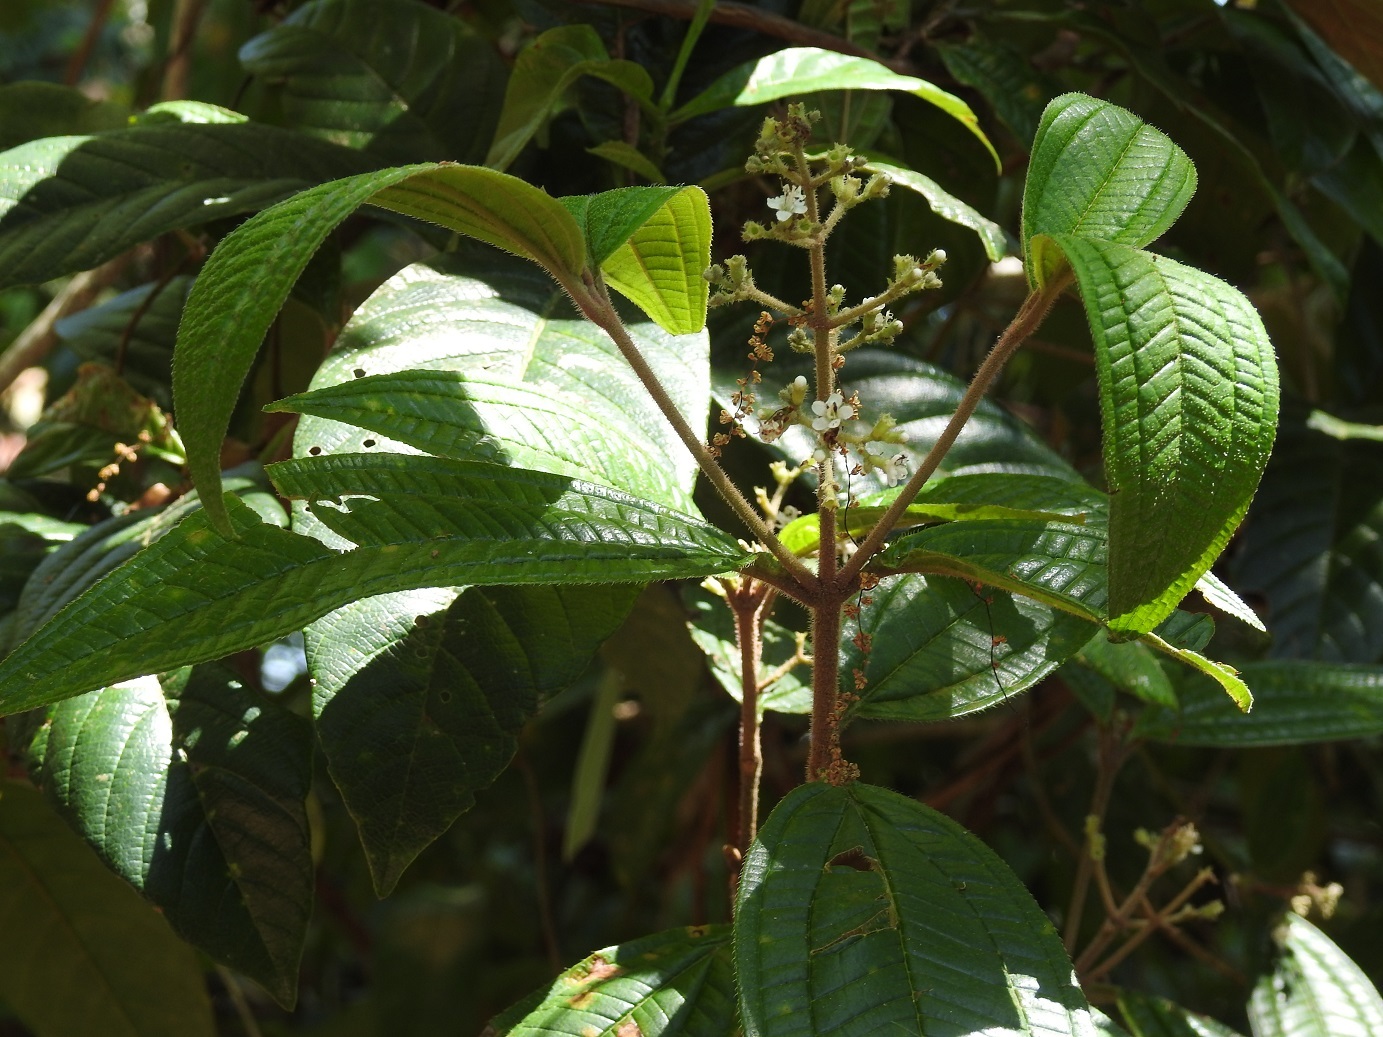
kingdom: Plantae
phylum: Tracheophyta
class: Magnoliopsida
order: Myrtales
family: Melastomataceae
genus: Miconia
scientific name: Miconia ibaguensis
